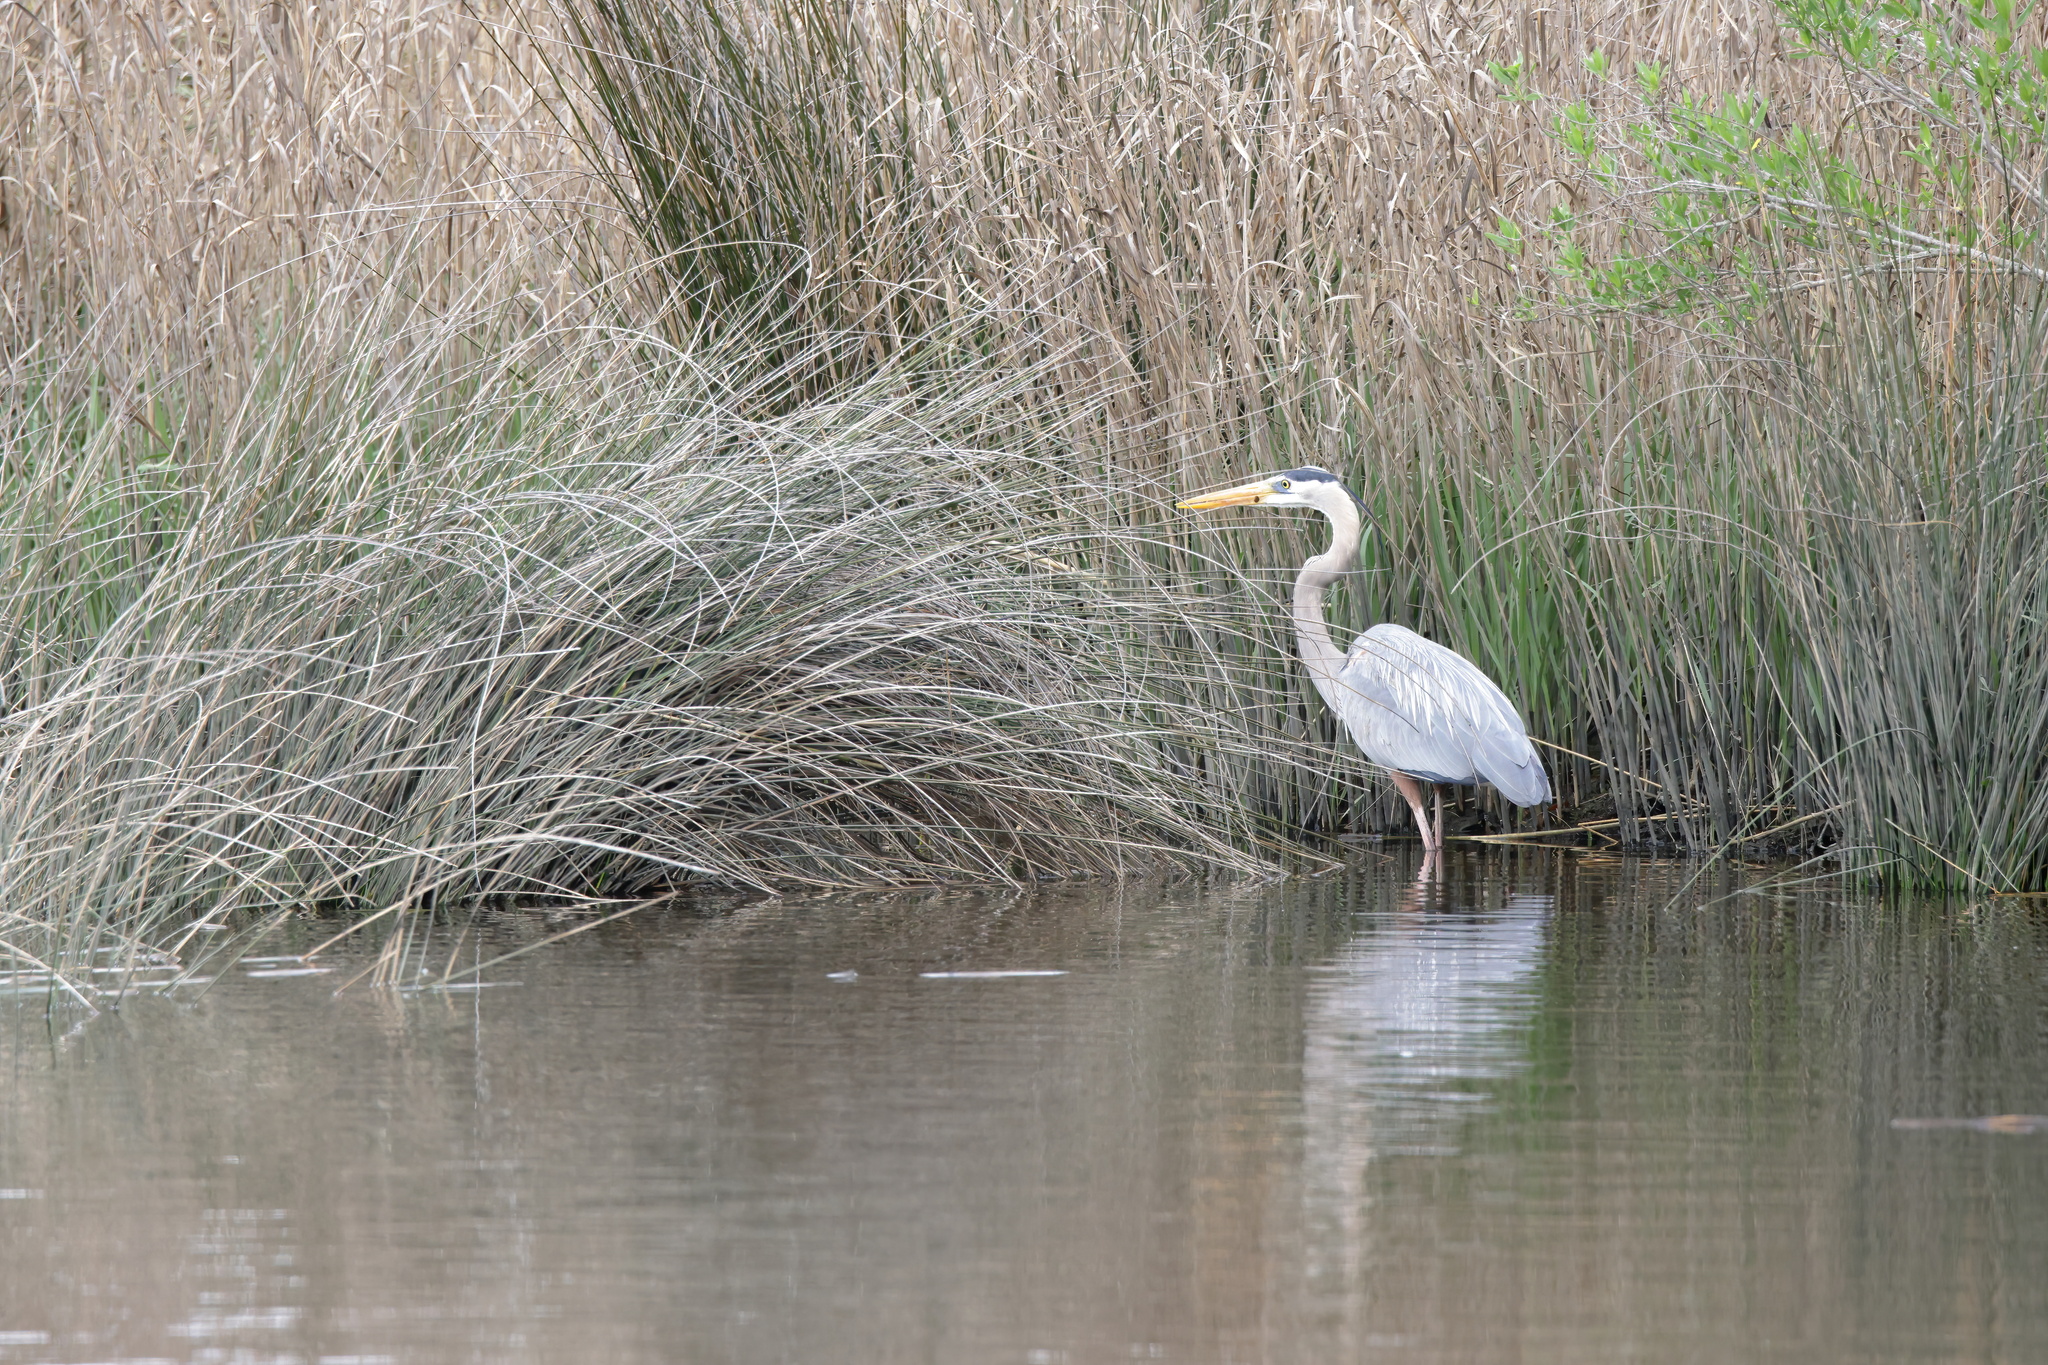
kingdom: Animalia
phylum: Chordata
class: Aves
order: Pelecaniformes
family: Ardeidae
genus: Ardea
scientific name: Ardea herodias
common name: Great blue heron
